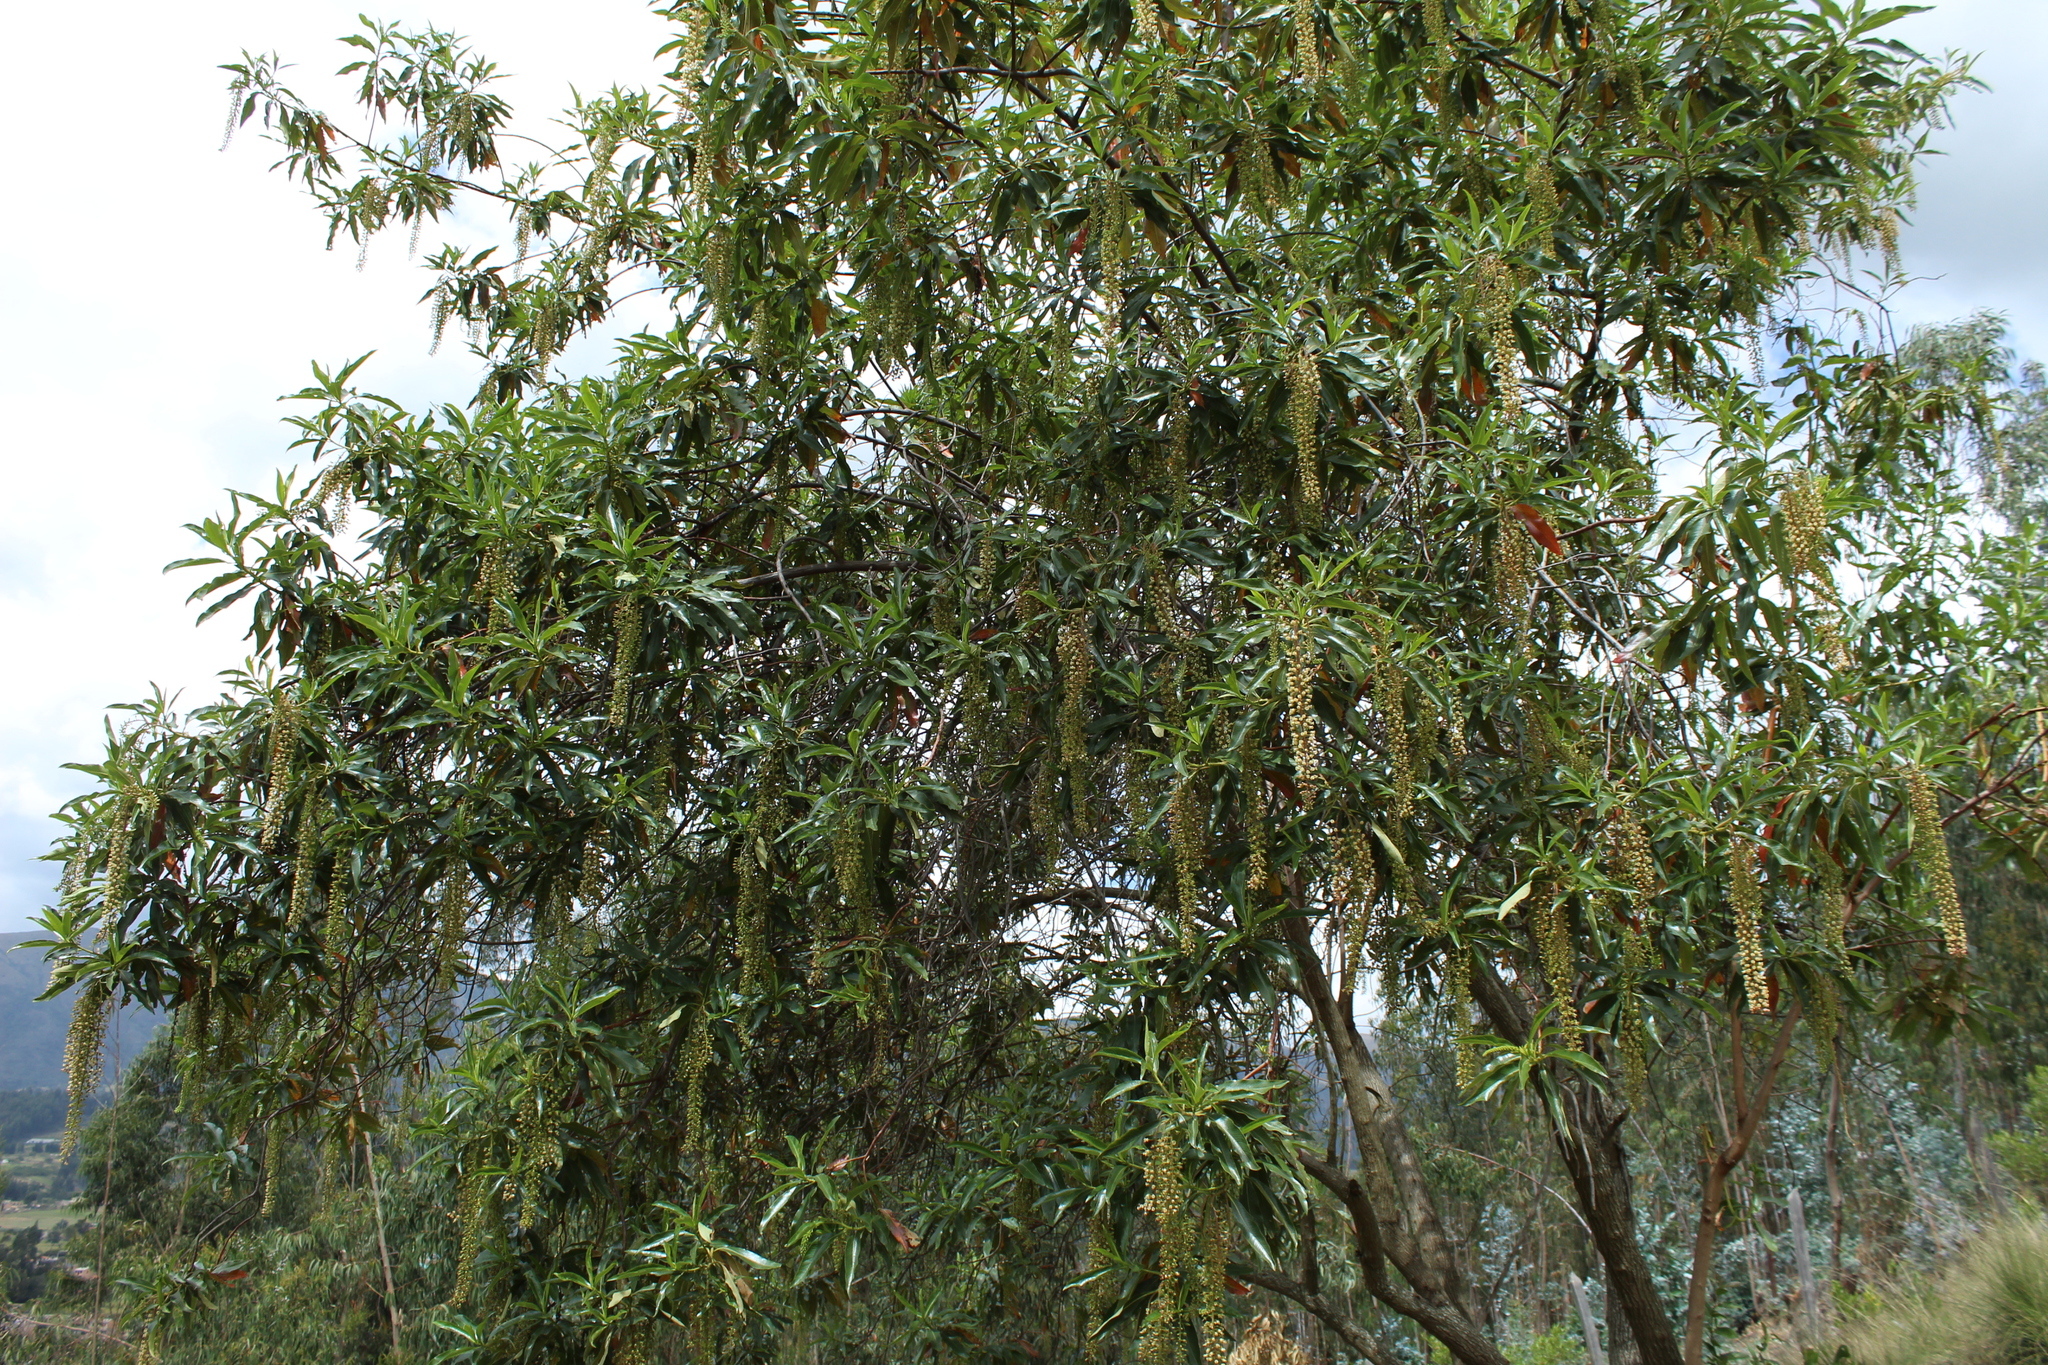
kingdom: Plantae
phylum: Tracheophyta
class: Magnoliopsida
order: Escalloniales
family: Escalloniaceae
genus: Escallonia
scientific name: Escallonia pendula
